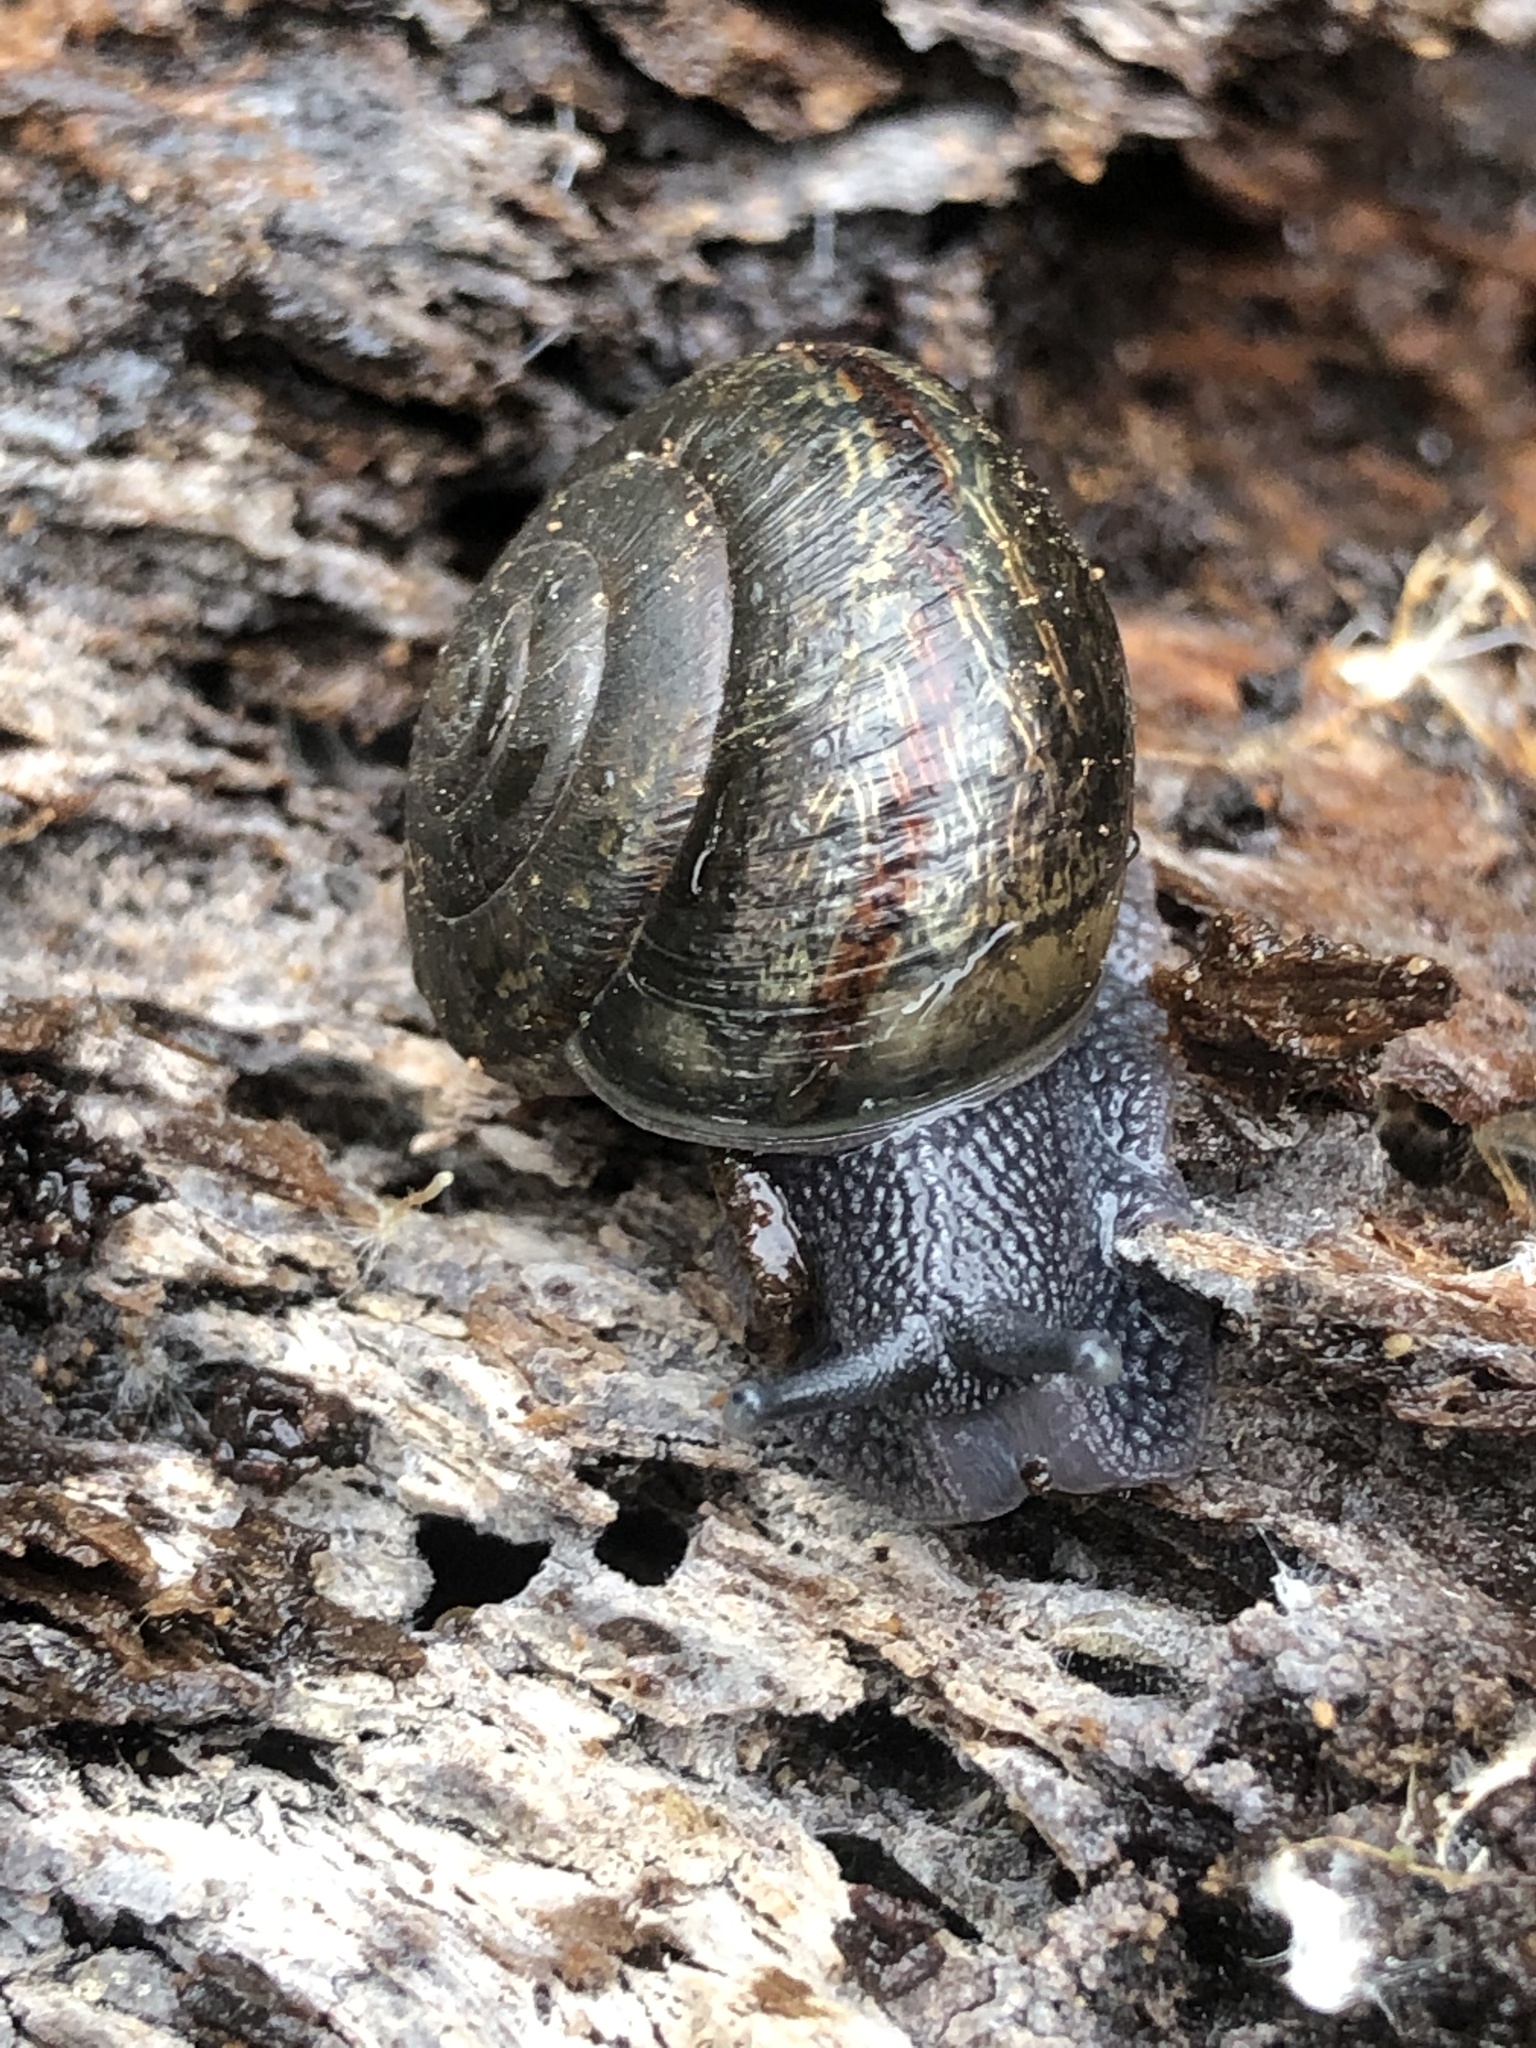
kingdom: Animalia
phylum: Mollusca
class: Gastropoda
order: Stylommatophora
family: Xanthonychidae
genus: Helminthoglypta
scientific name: Helminthoglypta umbilicata
